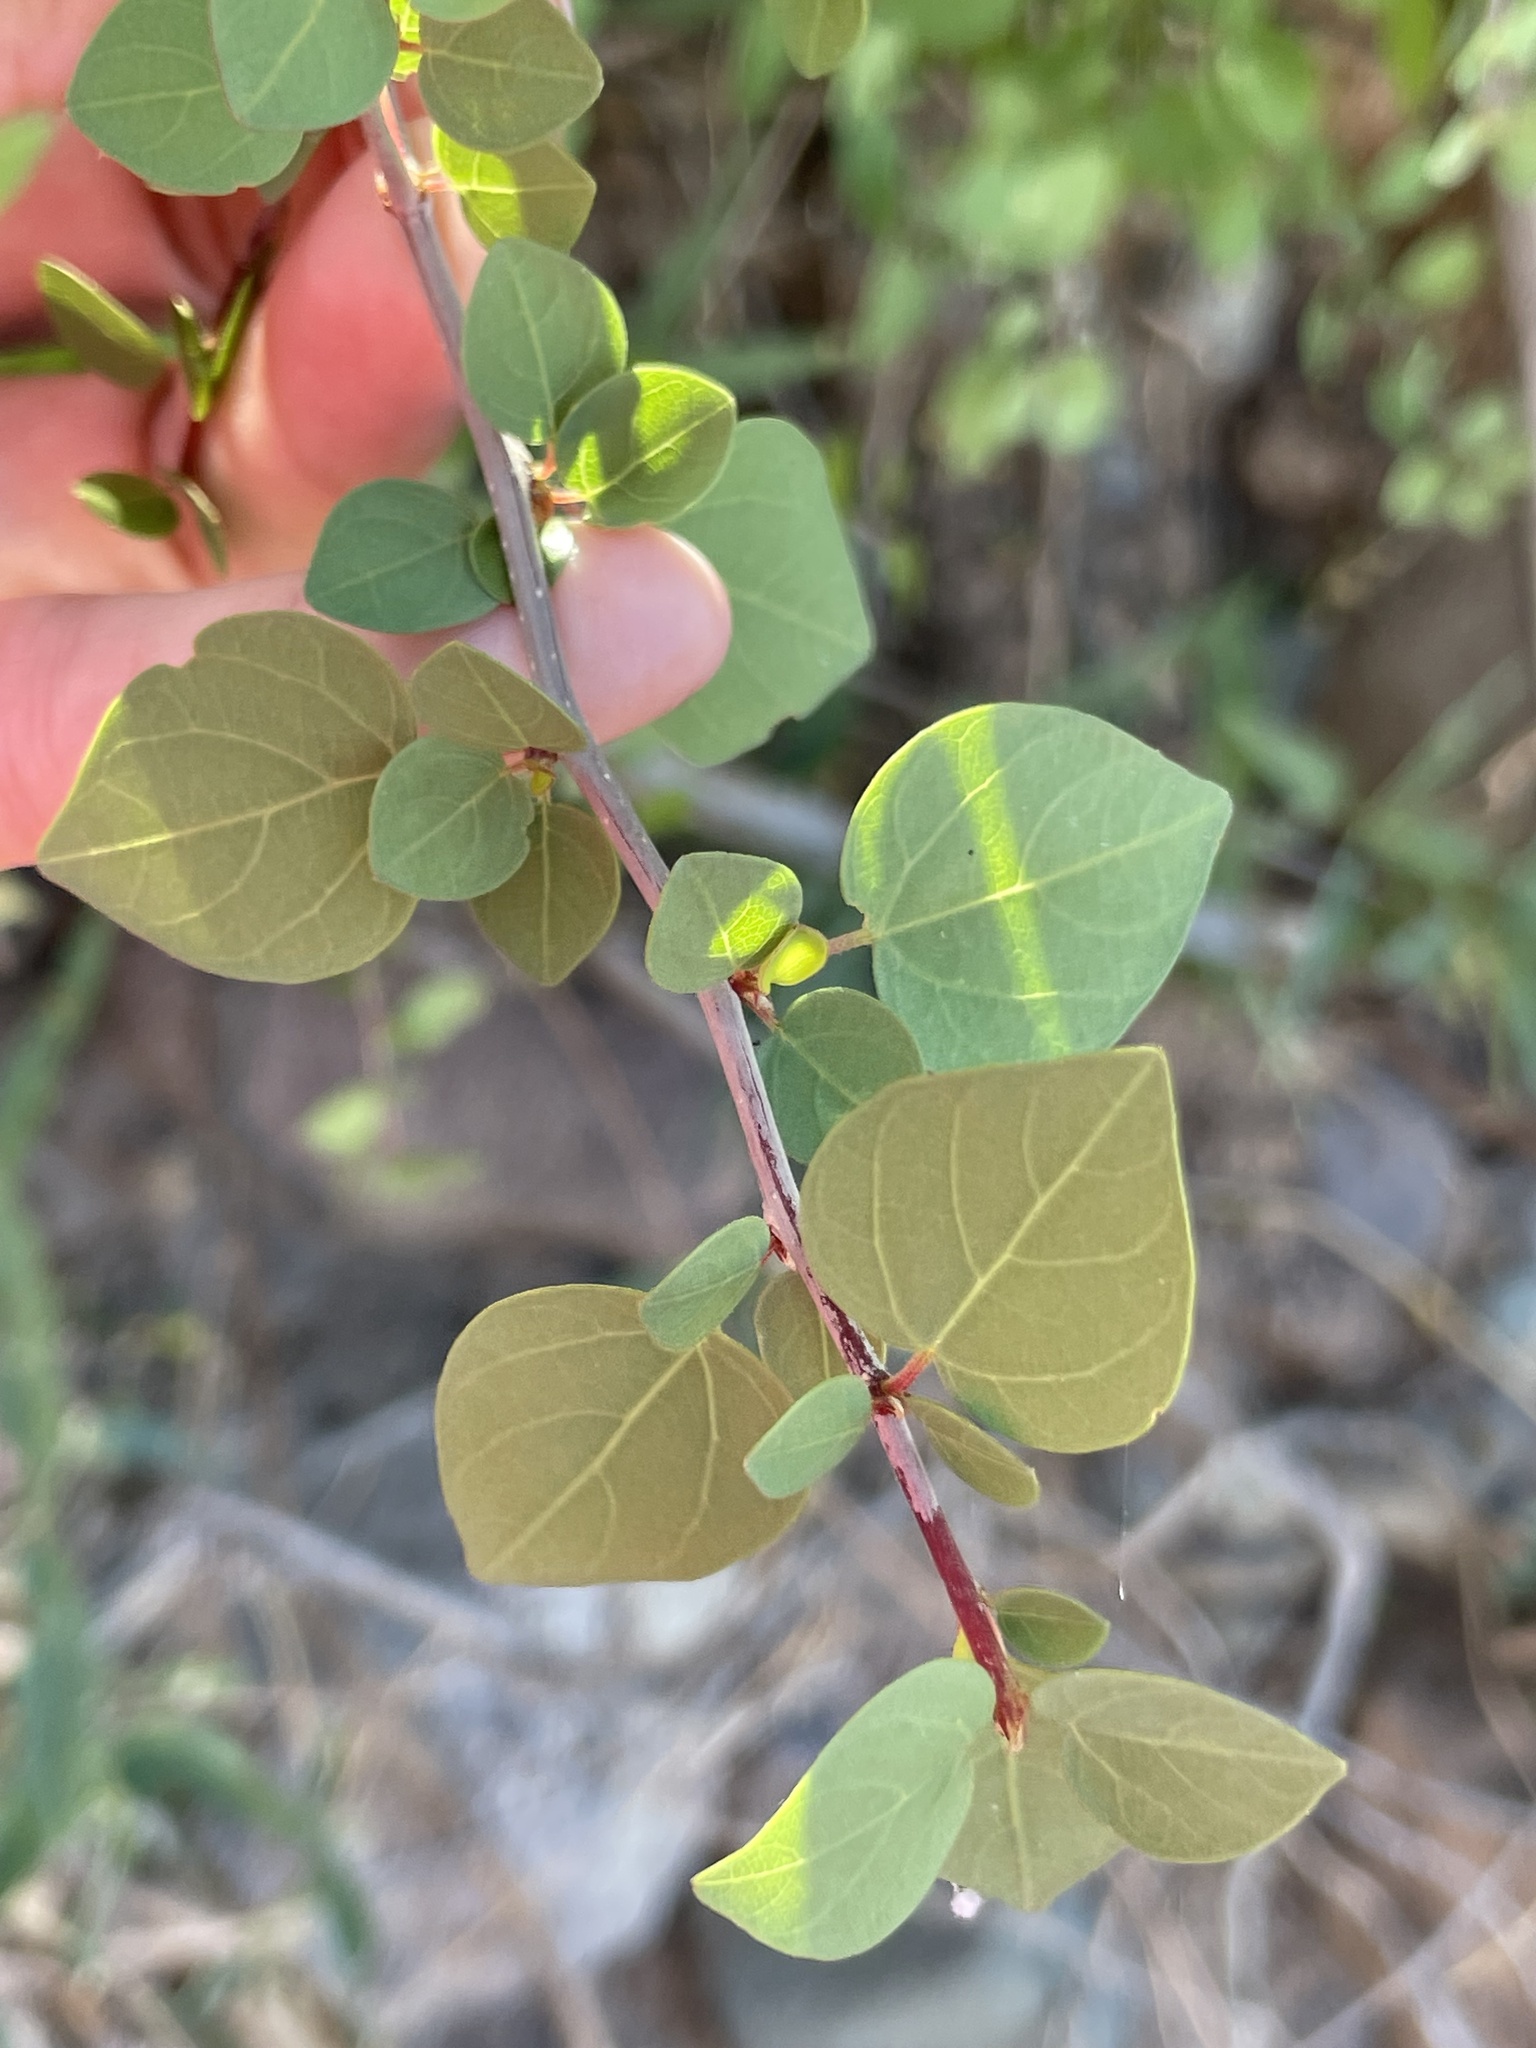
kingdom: Plantae
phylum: Tracheophyta
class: Magnoliopsida
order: Rosales
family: Rhamnaceae
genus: Colubrina
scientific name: Colubrina viridis
